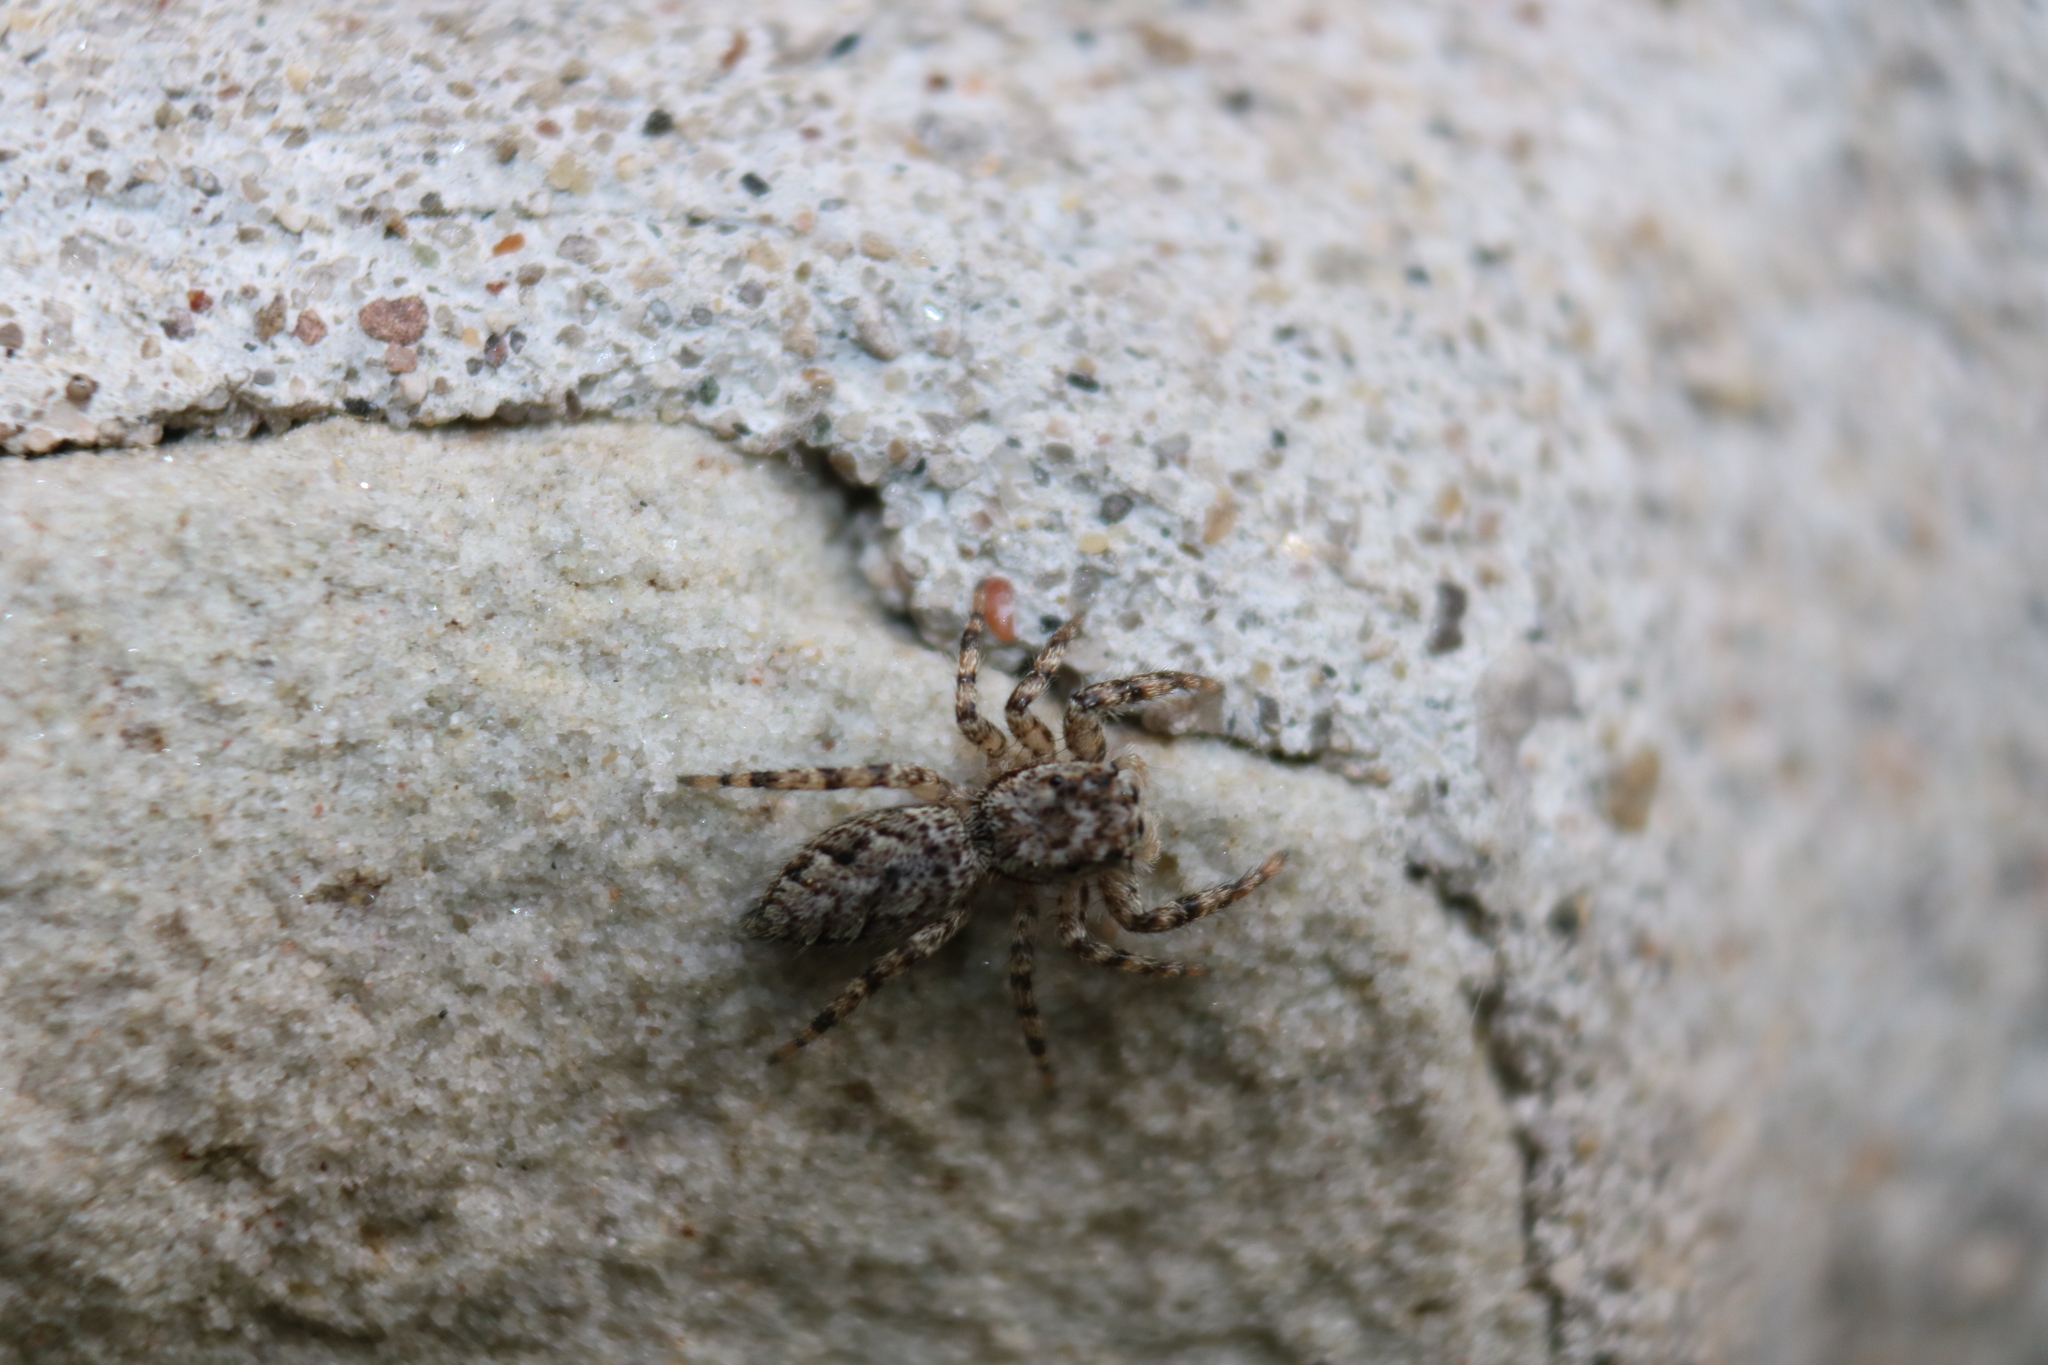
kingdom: Animalia
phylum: Arthropoda
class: Arachnida
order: Araneae
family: Salticidae
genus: Platycryptus
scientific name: Platycryptus undatus
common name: Tan jumping spider
